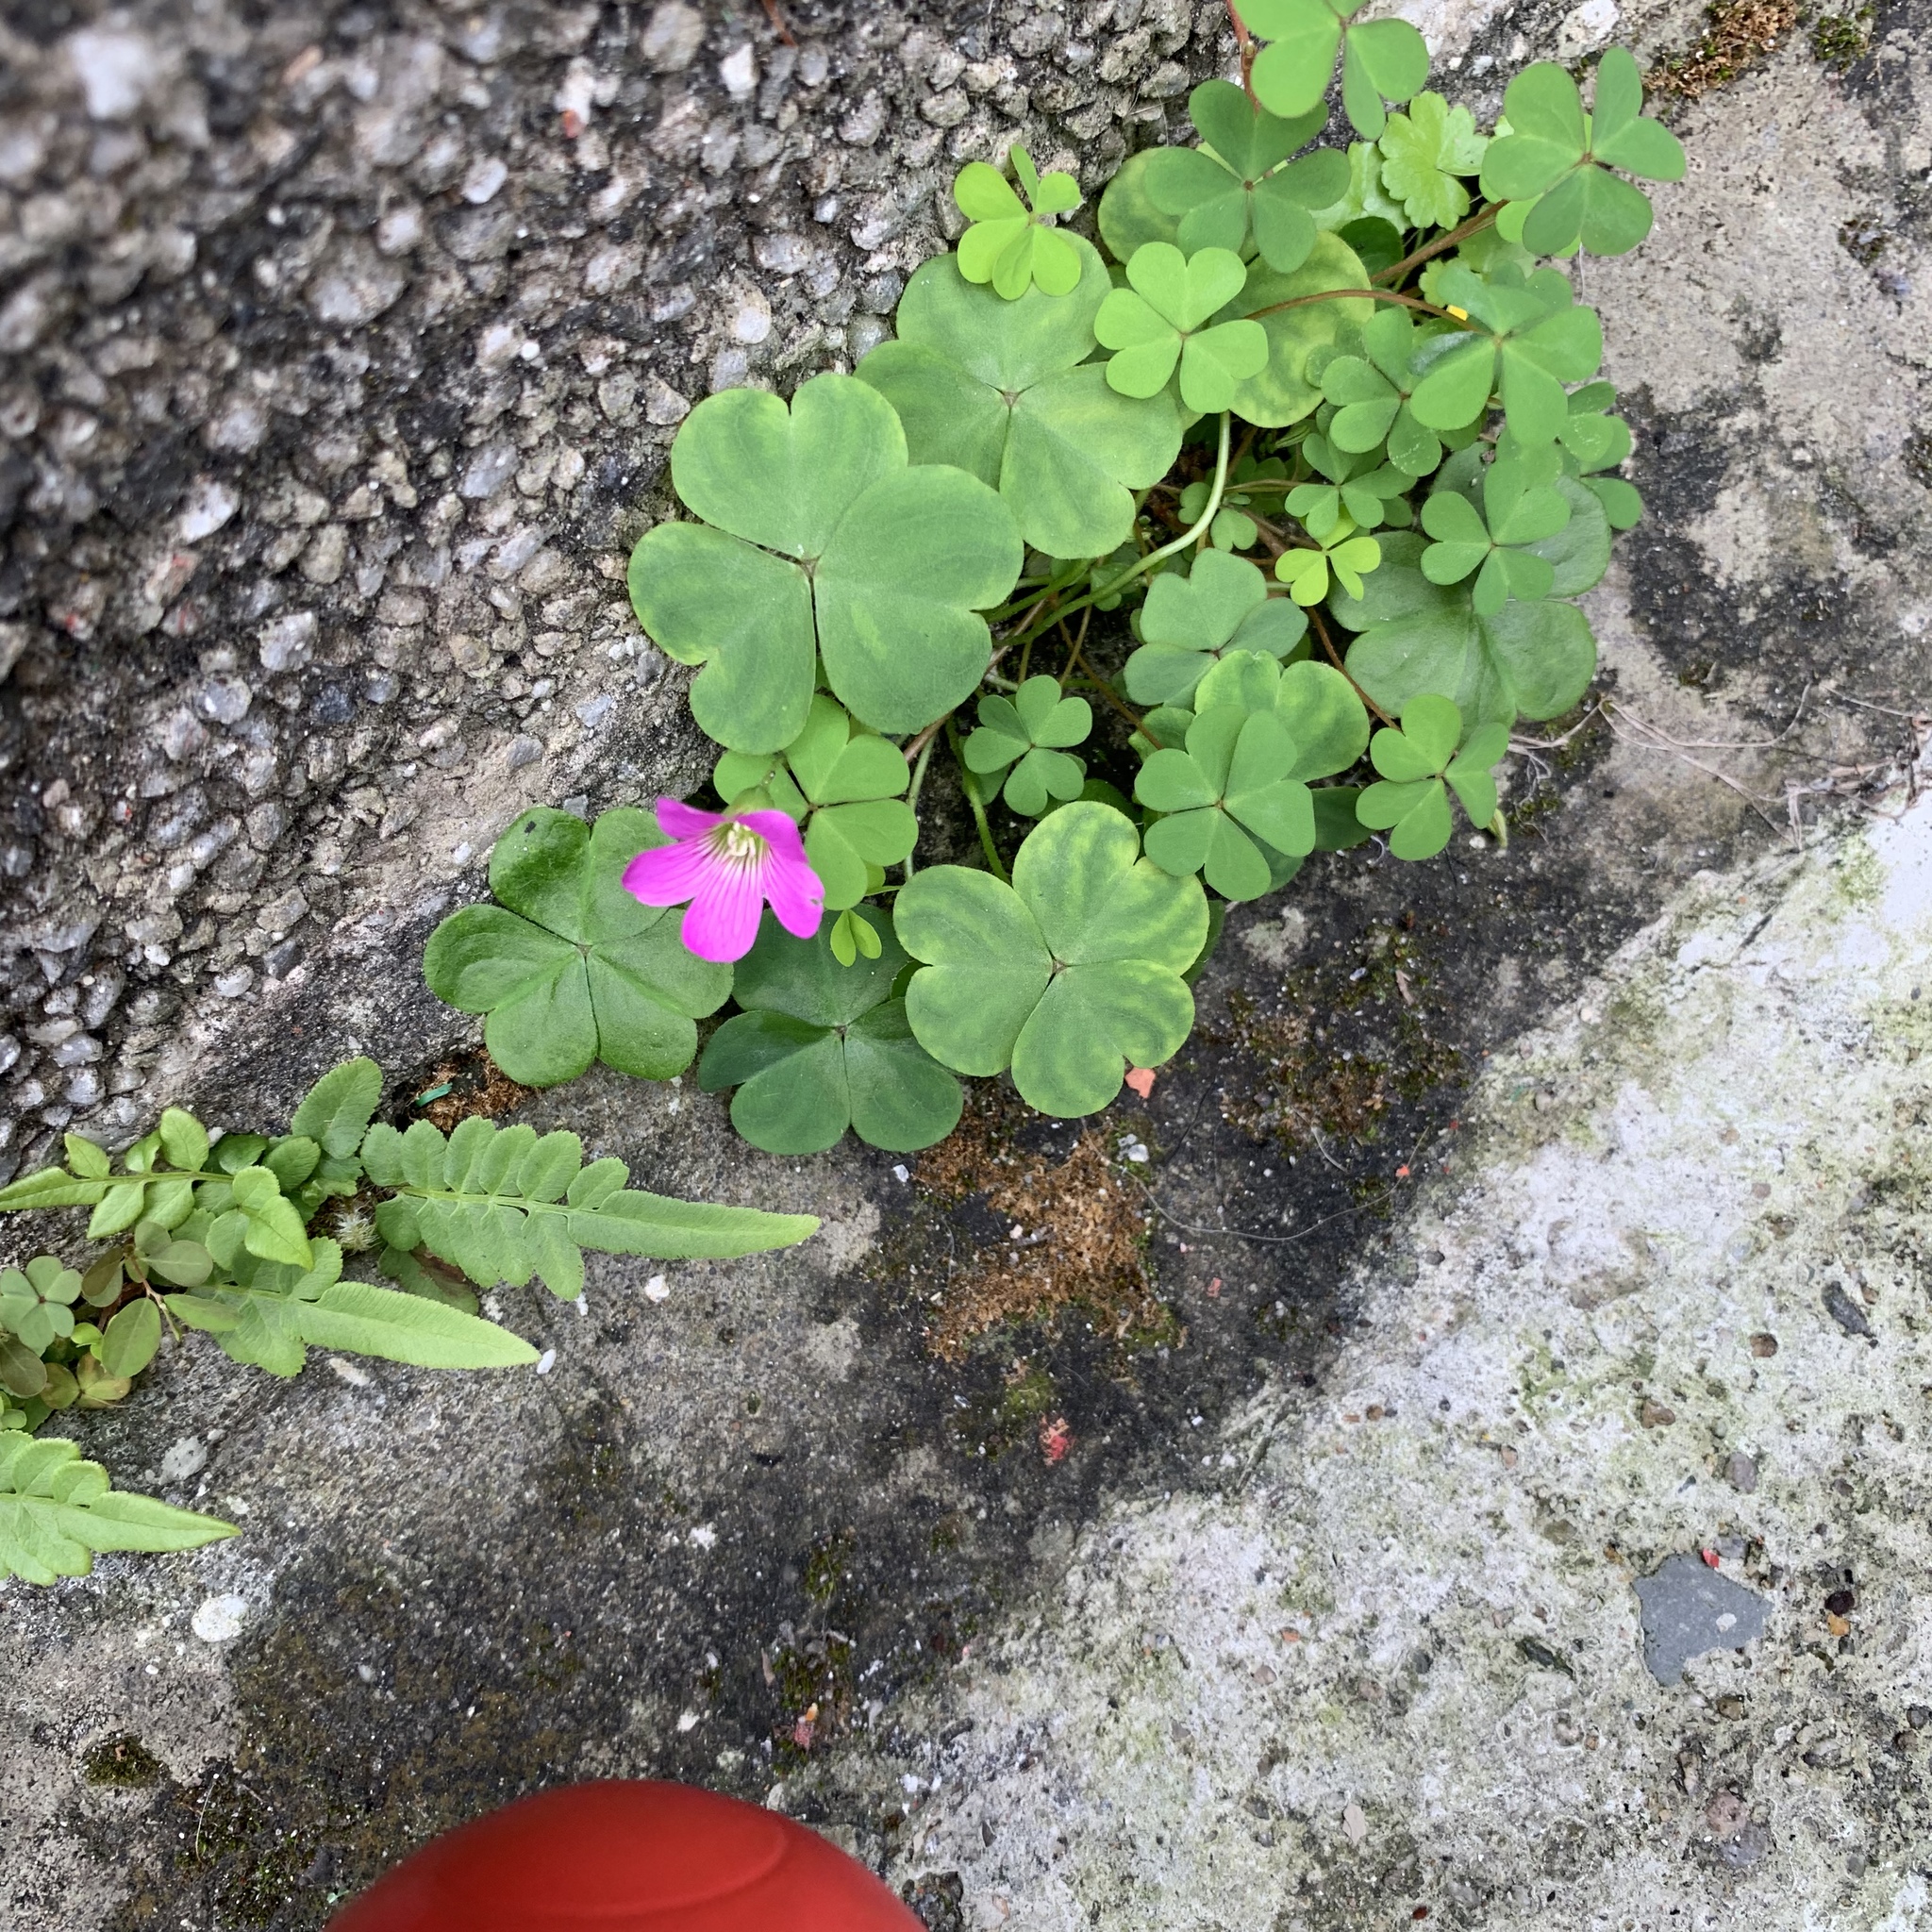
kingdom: Plantae
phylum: Tracheophyta
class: Magnoliopsida
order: Oxalidales
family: Oxalidaceae
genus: Oxalis
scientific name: Oxalis debilis
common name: Large-flowered pink-sorrel
